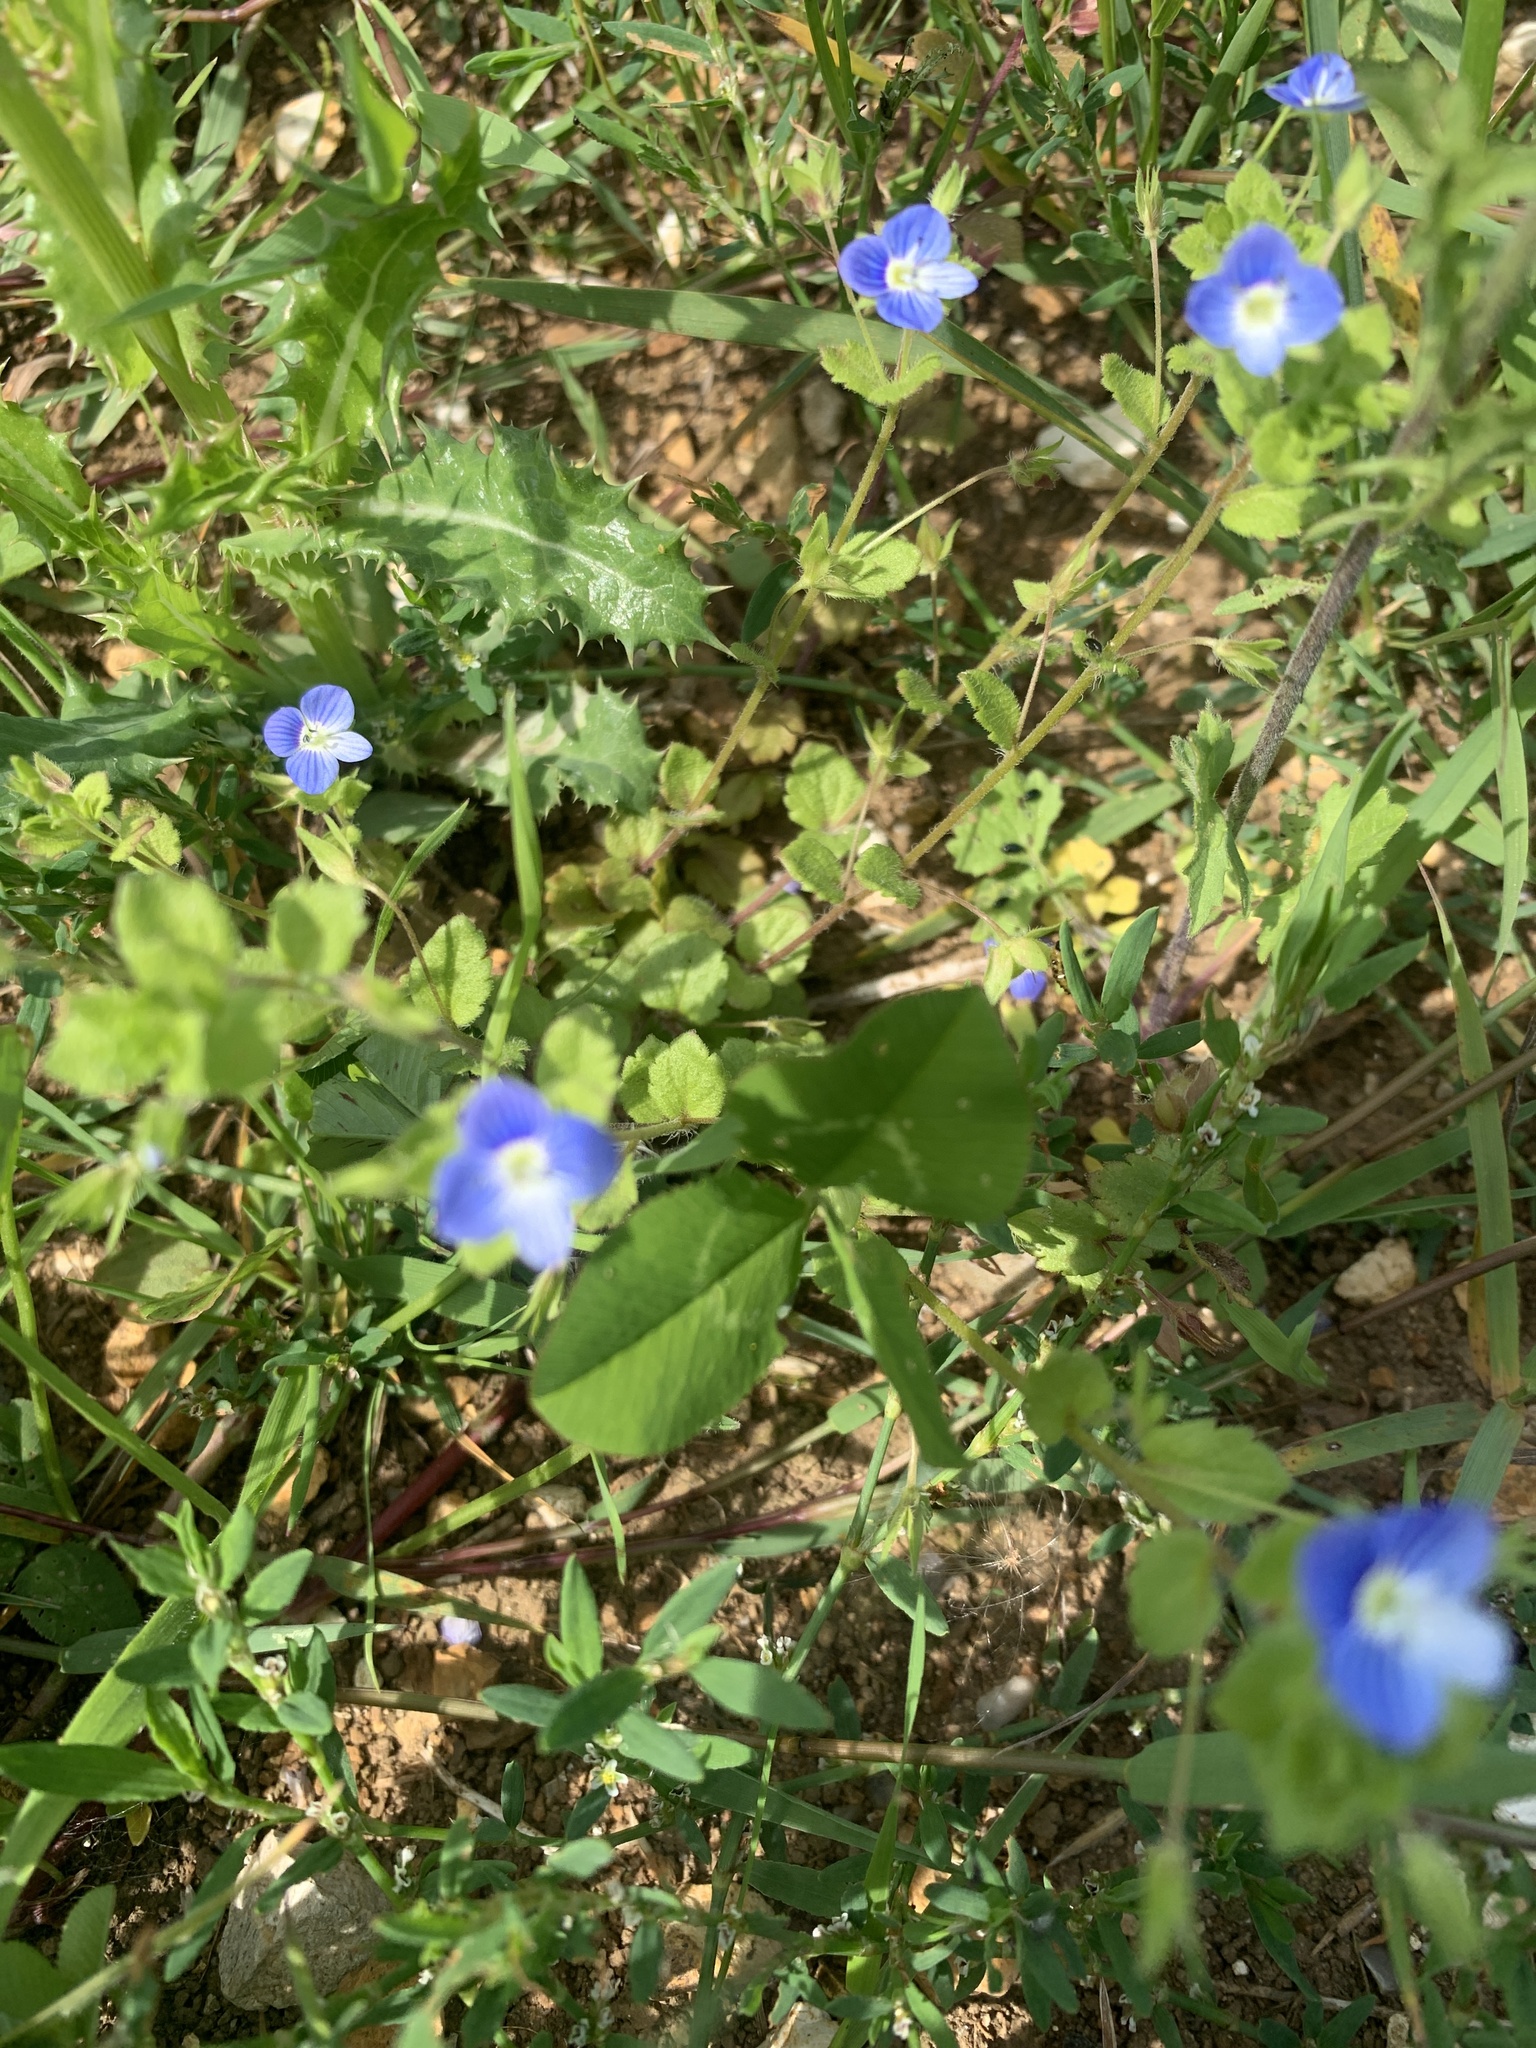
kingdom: Plantae
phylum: Tracheophyta
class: Magnoliopsida
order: Lamiales
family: Plantaginaceae
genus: Veronica
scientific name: Veronica persica
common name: Common field-speedwell
